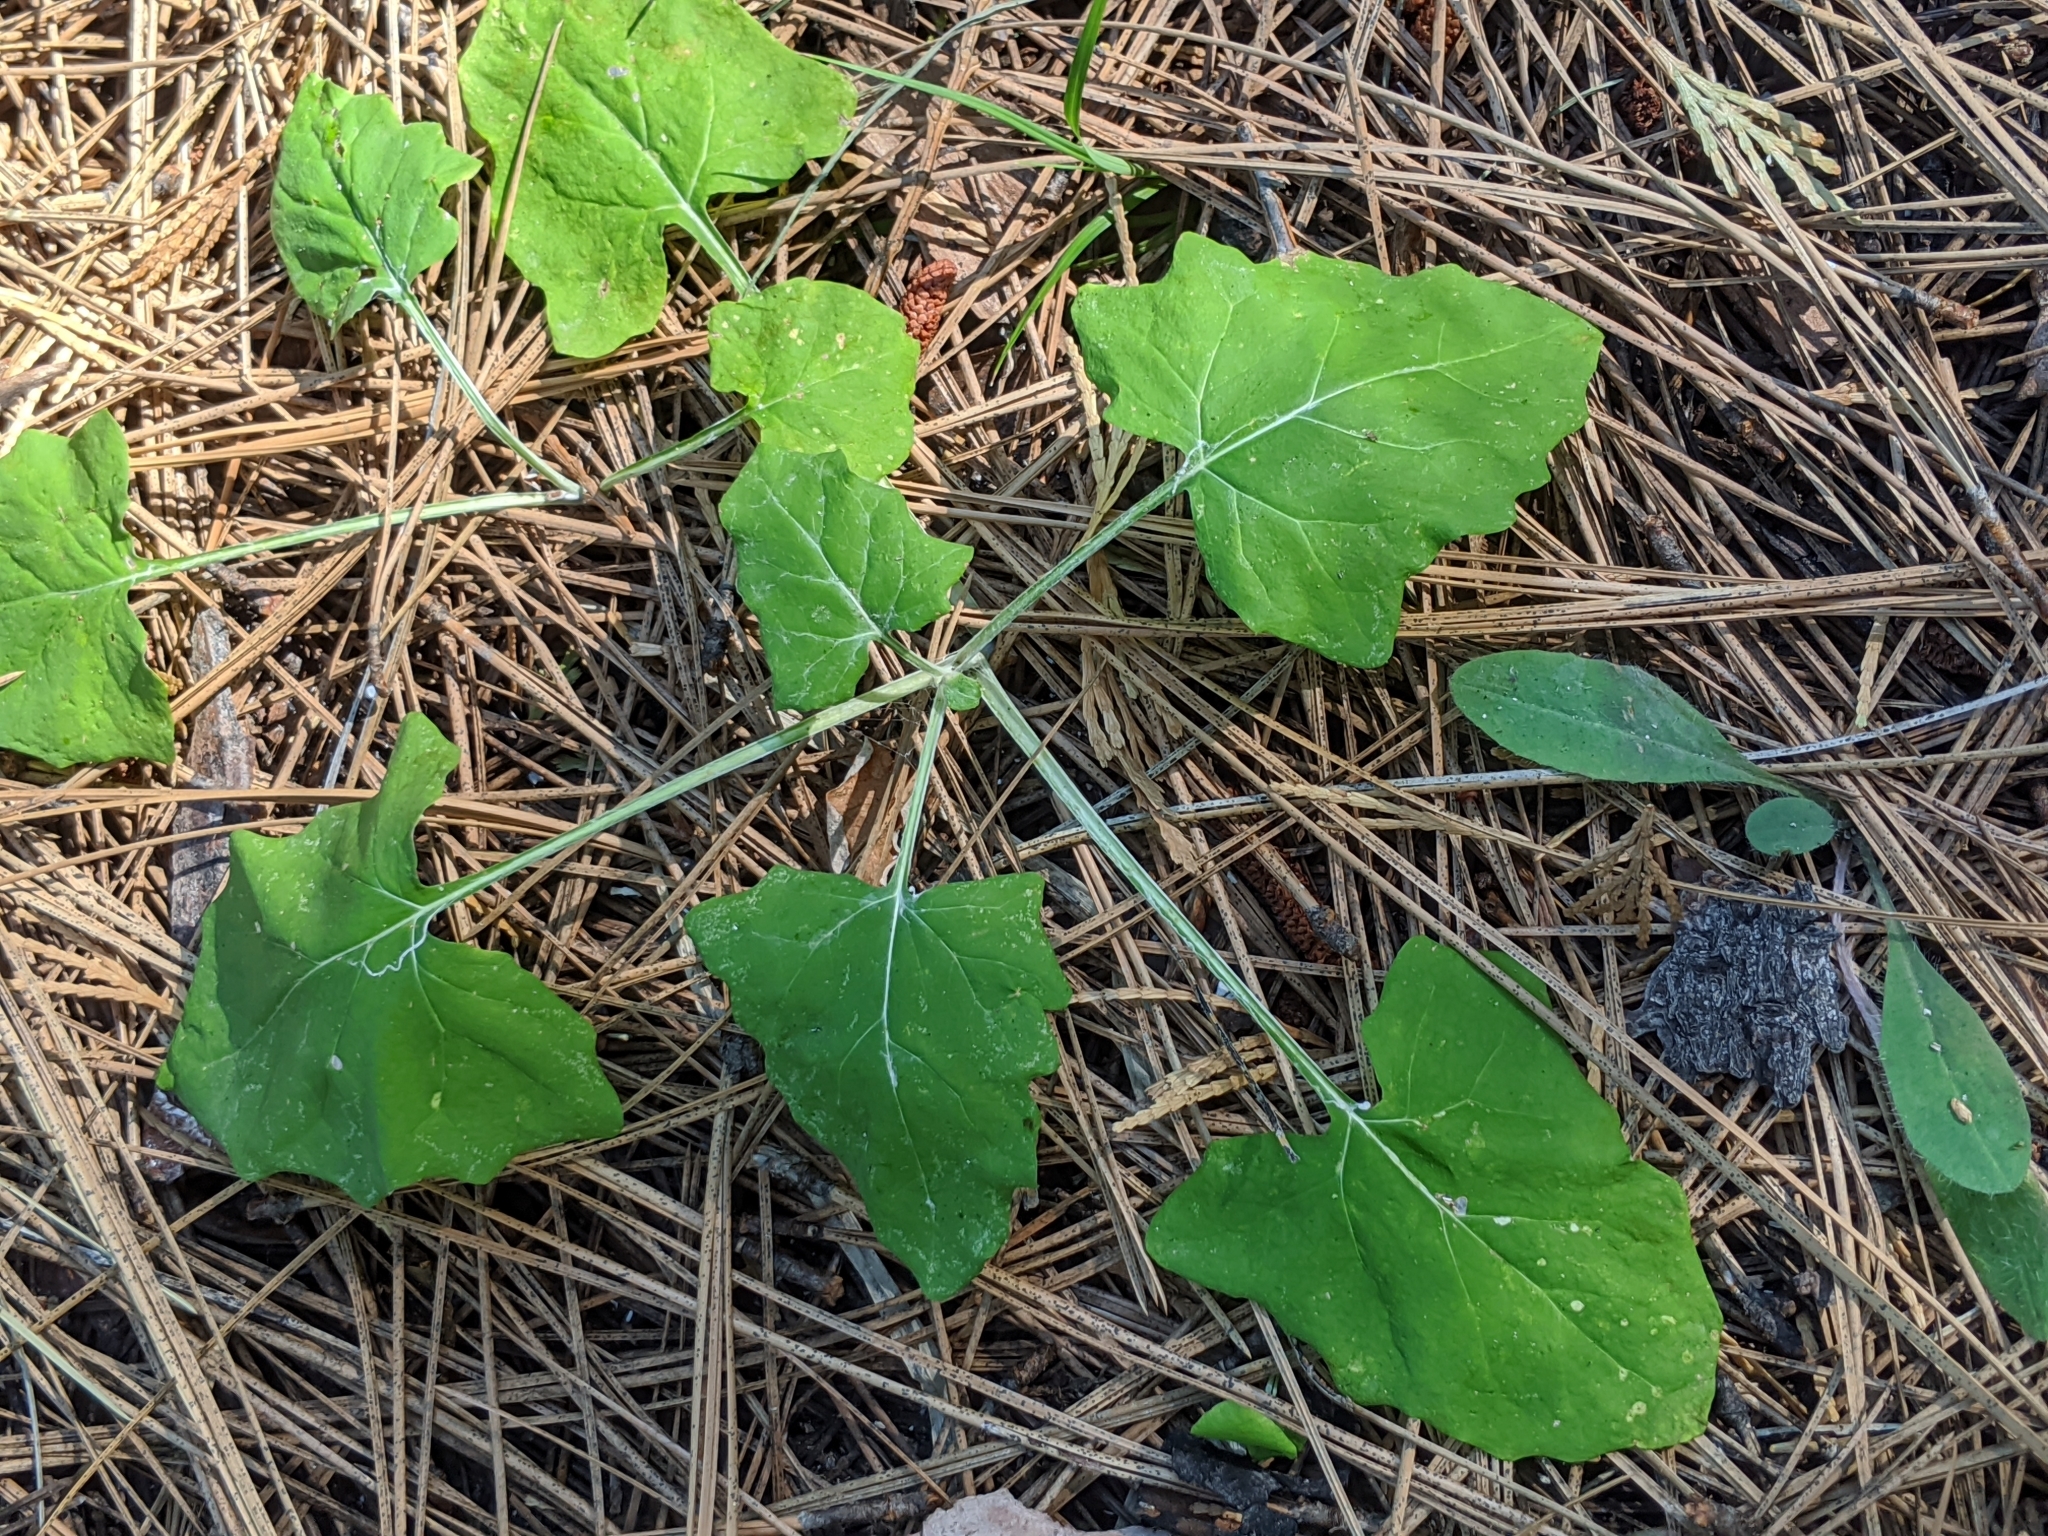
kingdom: Plantae
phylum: Tracheophyta
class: Magnoliopsida
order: Asterales
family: Asteraceae
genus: Adenocaulon
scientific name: Adenocaulon bicolor
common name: Trailplant
